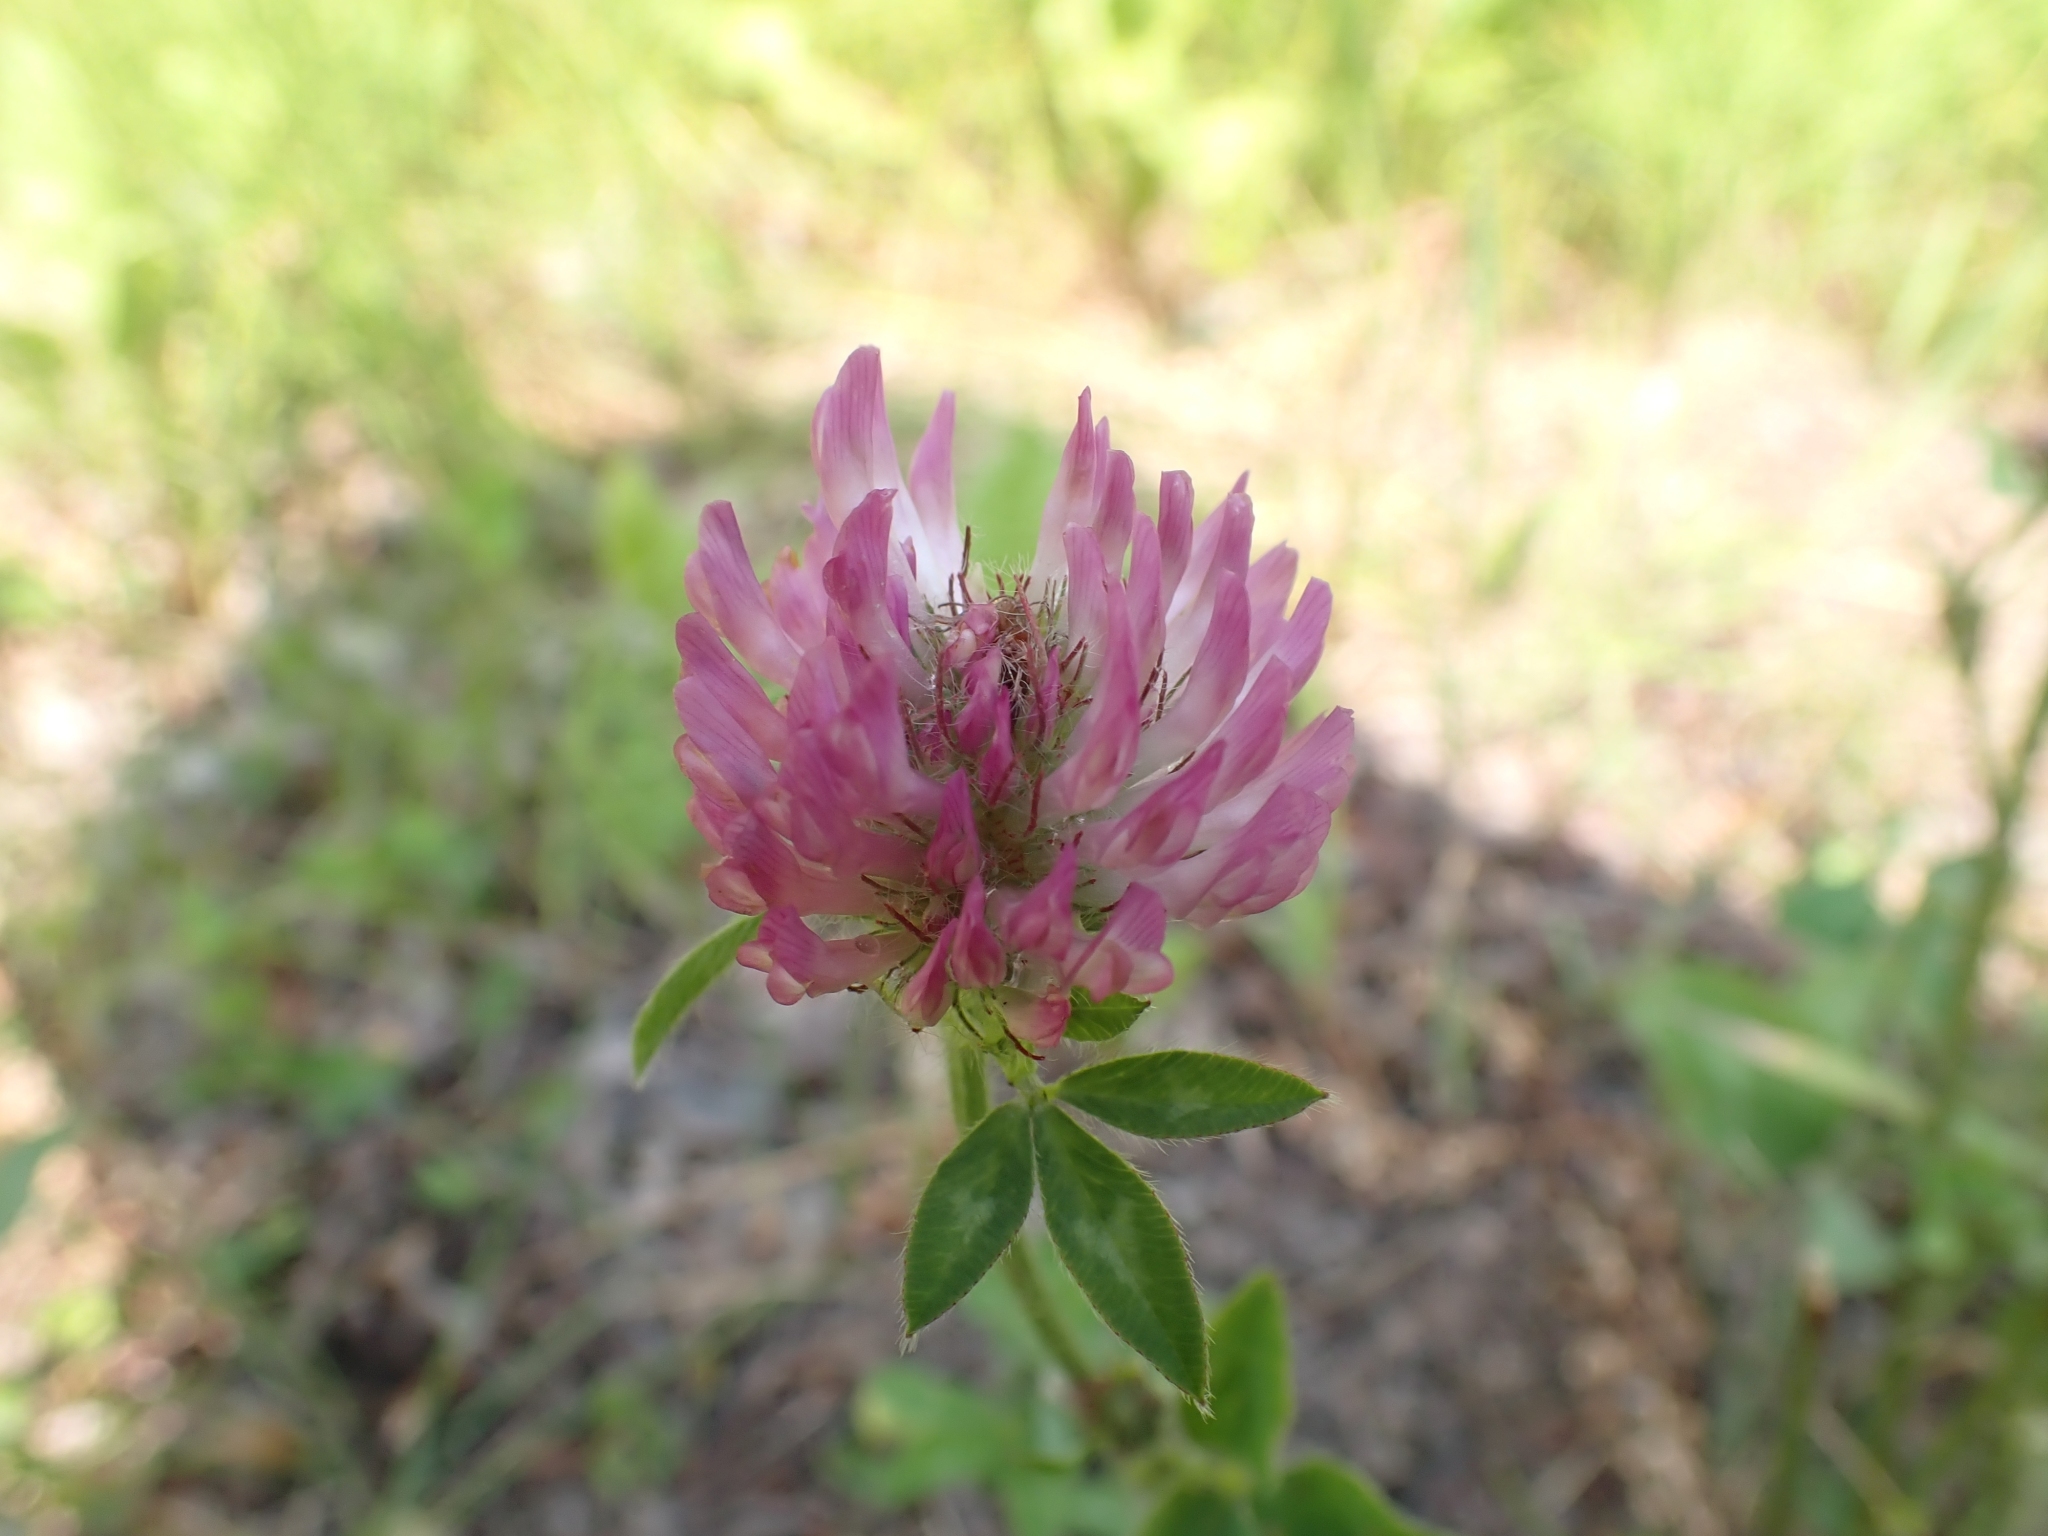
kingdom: Plantae
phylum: Tracheophyta
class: Magnoliopsida
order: Fabales
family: Fabaceae
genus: Trifolium
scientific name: Trifolium pratense
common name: Red clover
